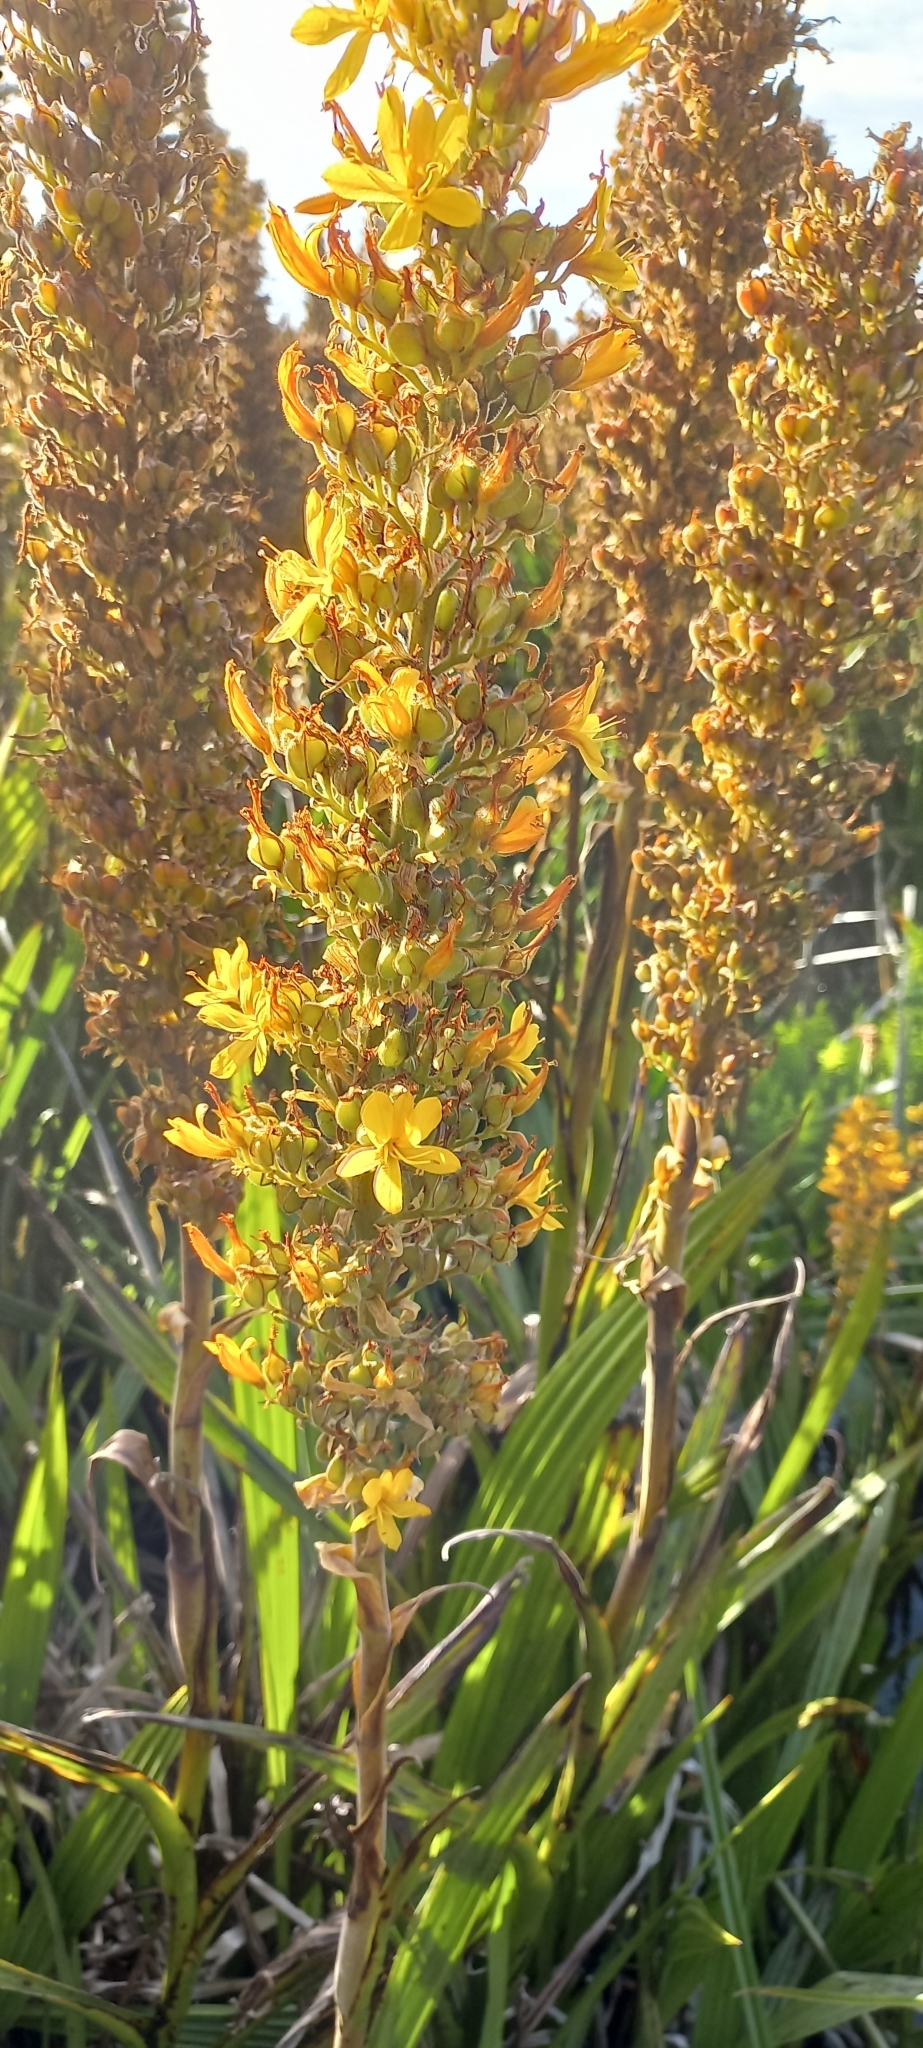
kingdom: Plantae
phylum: Tracheophyta
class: Liliopsida
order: Commelinales
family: Haemodoraceae
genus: Wachendorfia
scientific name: Wachendorfia thyrsiflora
